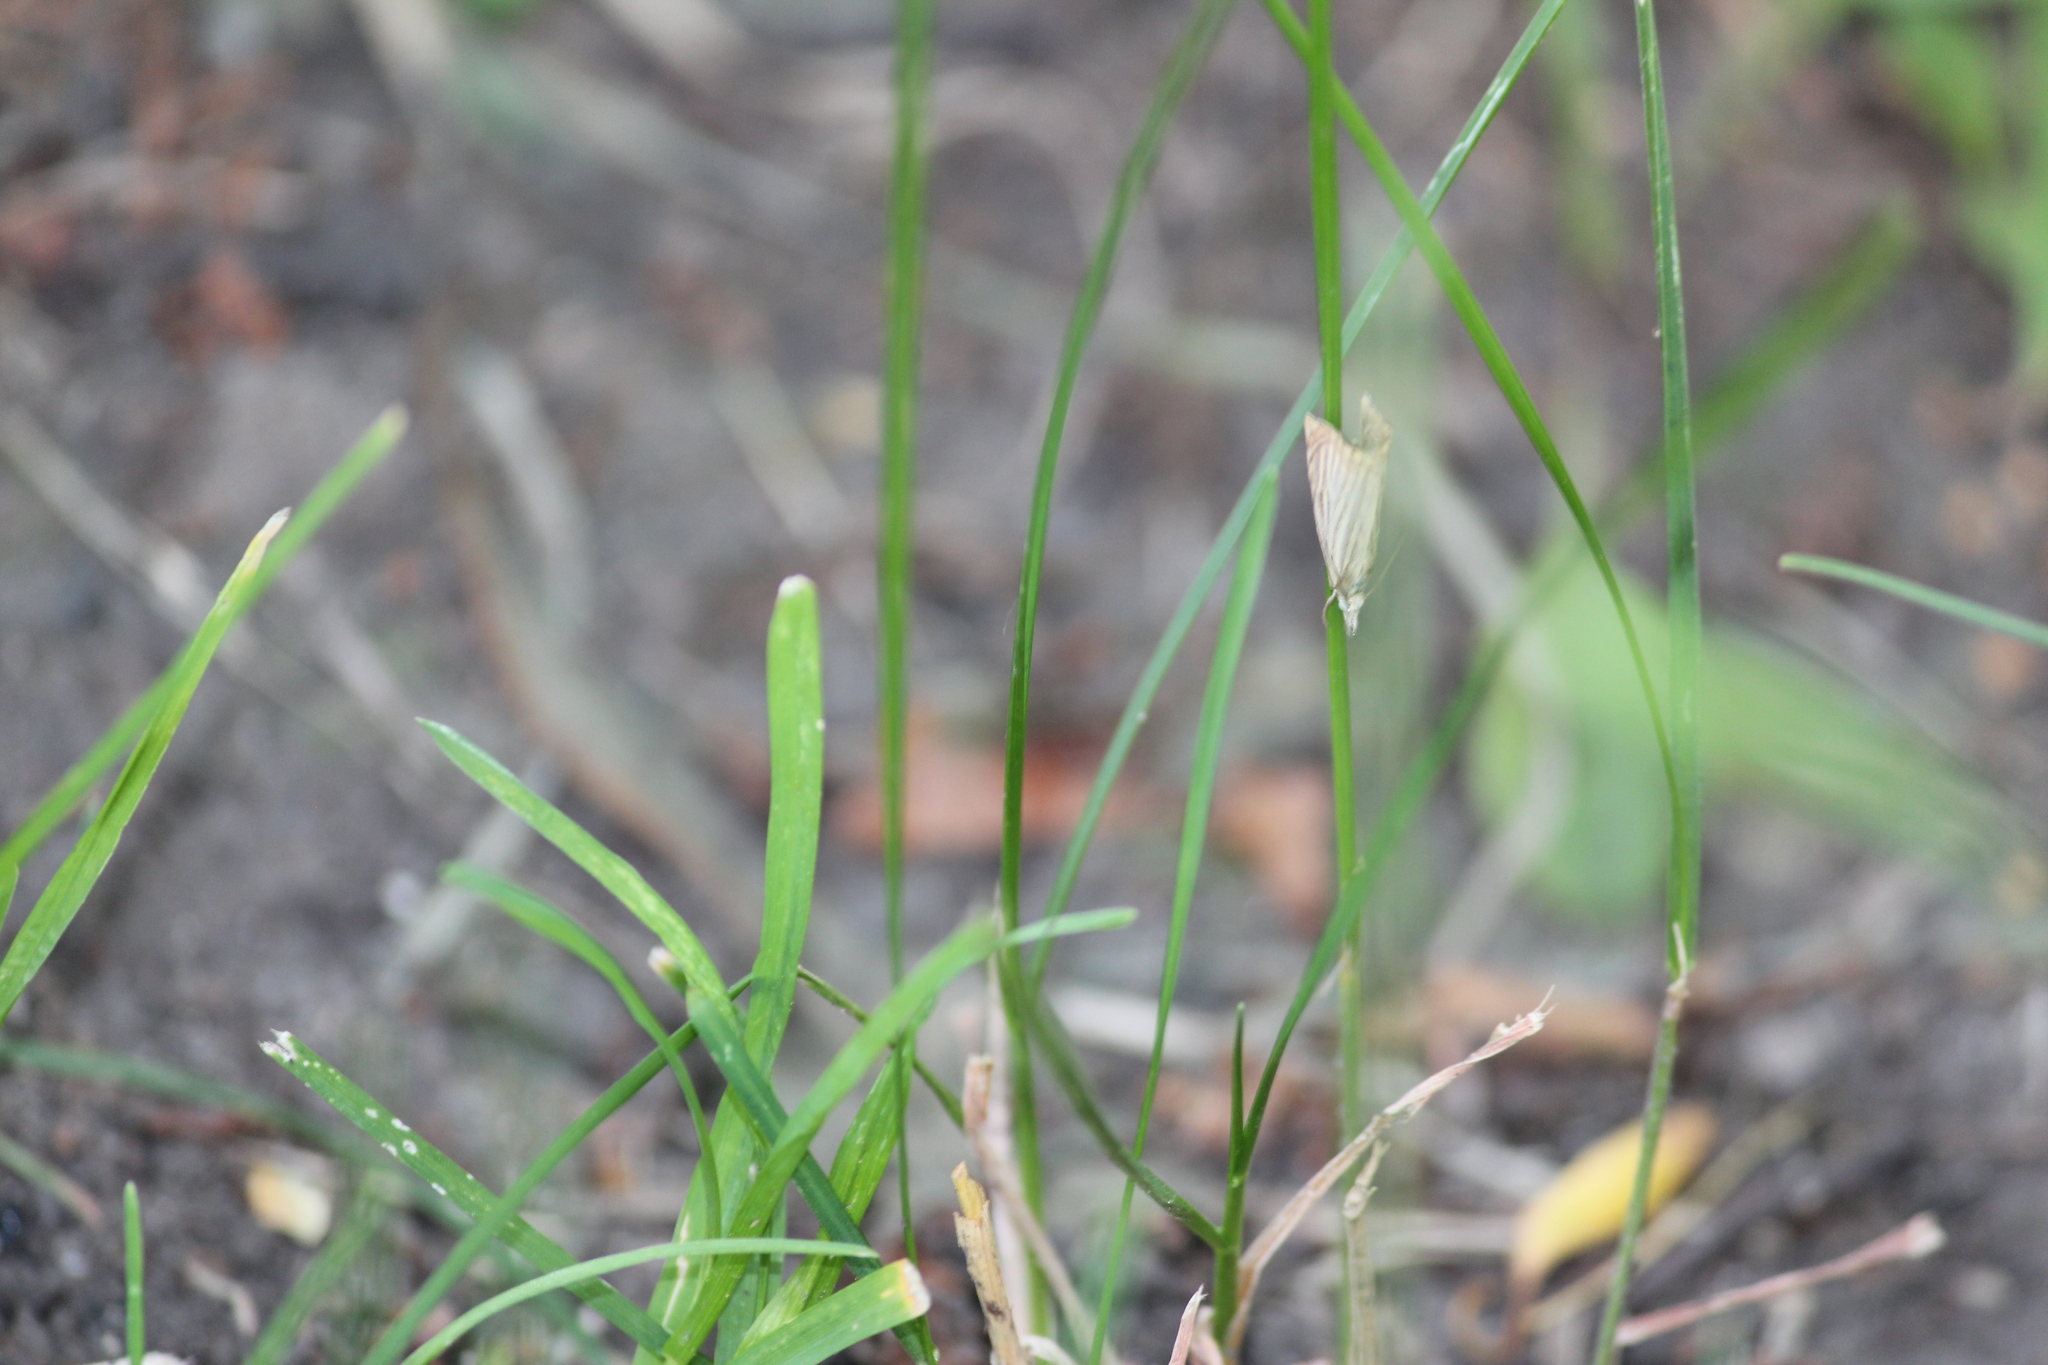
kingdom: Animalia
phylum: Arthropoda
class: Insecta
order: Lepidoptera
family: Crambidae
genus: Chrysoteuchia
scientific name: Chrysoteuchia culmella
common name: Garden grass-veneer
